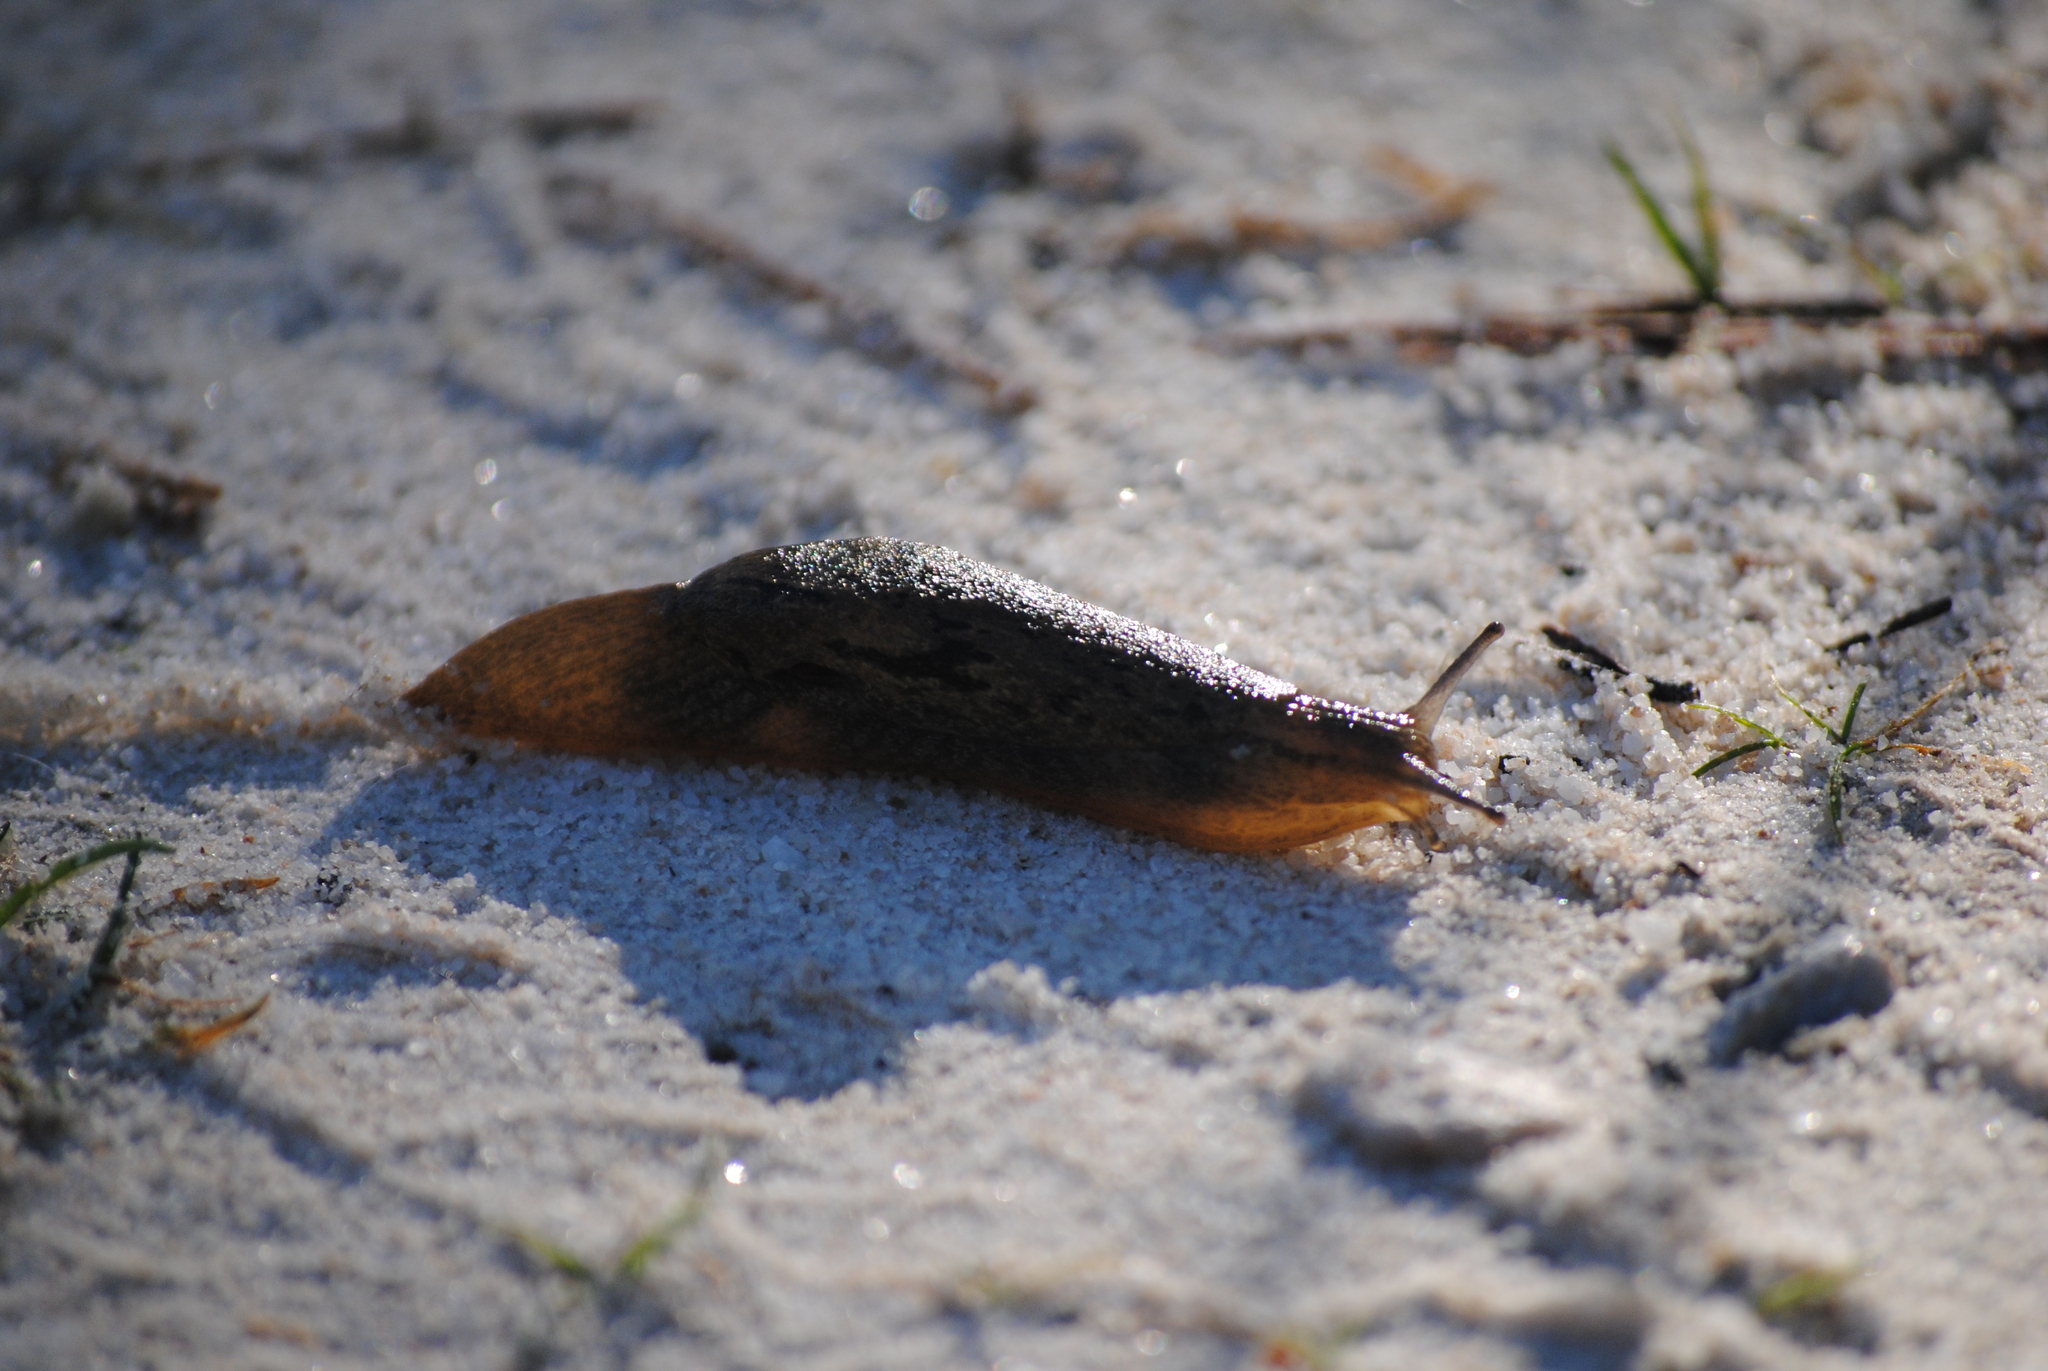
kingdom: Animalia
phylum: Mollusca
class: Gastropoda
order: Stylommatophora
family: Parmacellidae
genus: Drusia
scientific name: Drusia valenciennii
